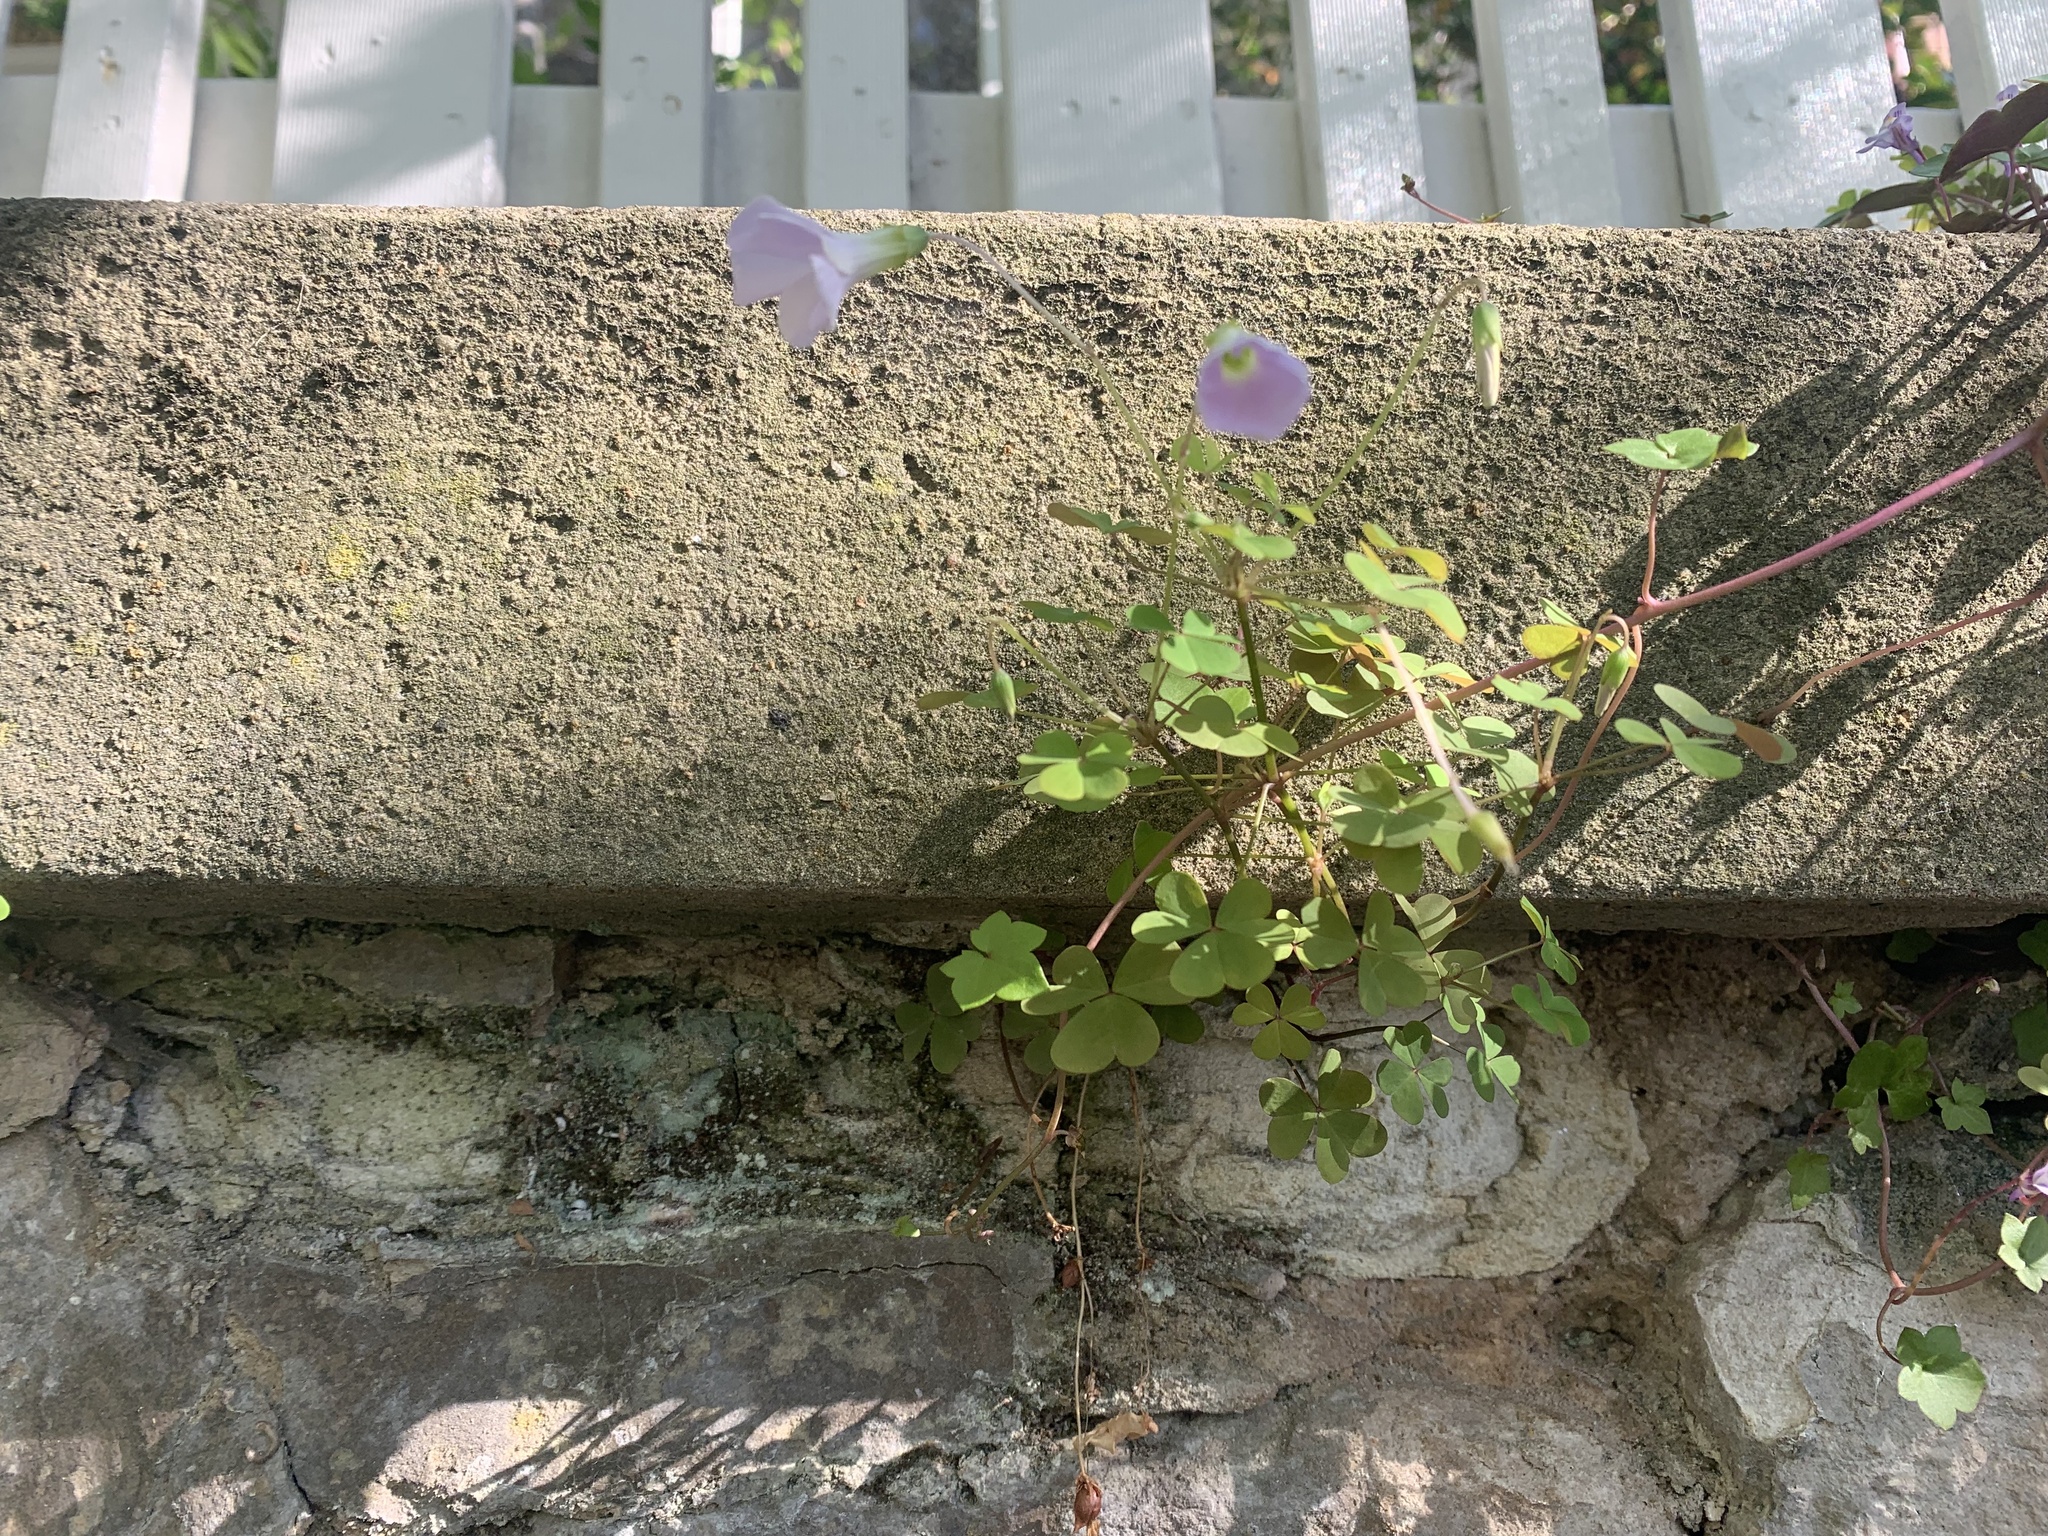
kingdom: Plantae
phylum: Tracheophyta
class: Magnoliopsida
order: Oxalidales
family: Oxalidaceae
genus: Oxalis
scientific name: Oxalis incarnata
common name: Pale pink-sorrel
